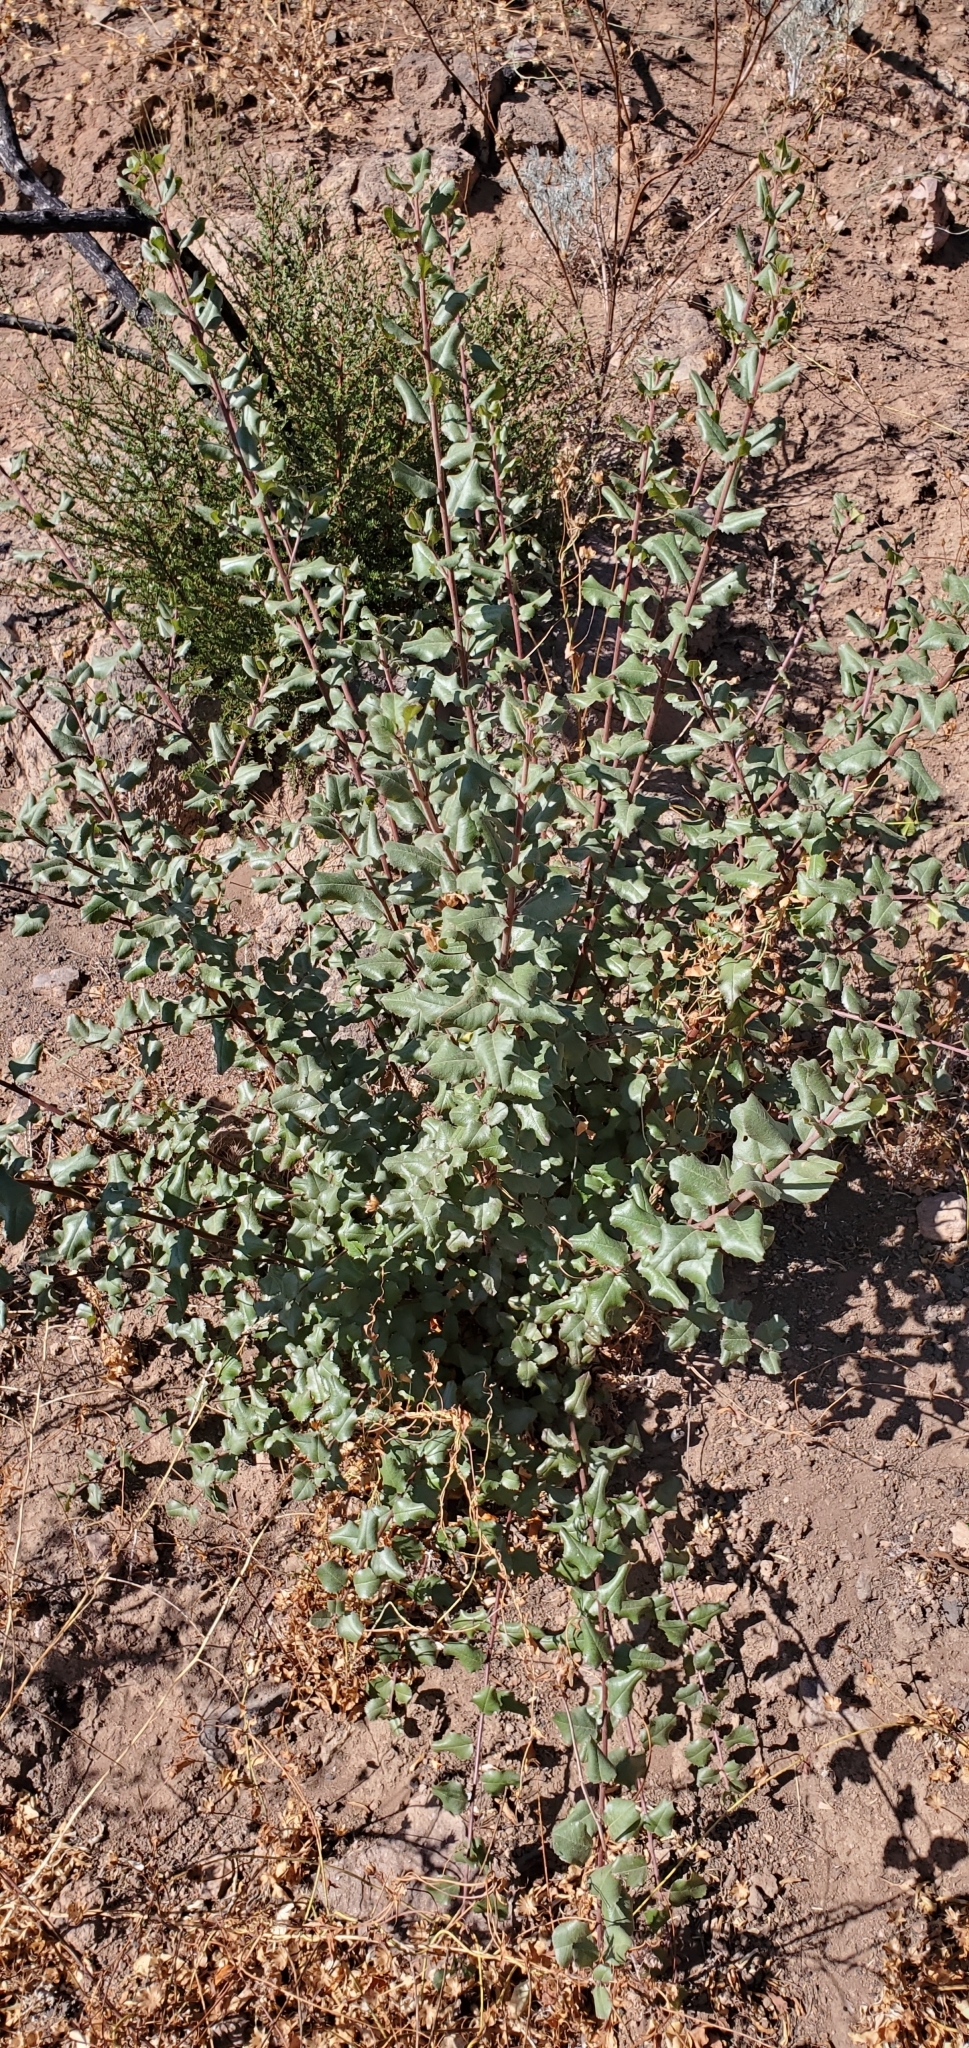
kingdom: Plantae
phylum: Tracheophyta
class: Magnoliopsida
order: Rosales
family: Rhamnaceae
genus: Endotropis
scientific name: Endotropis crocea
